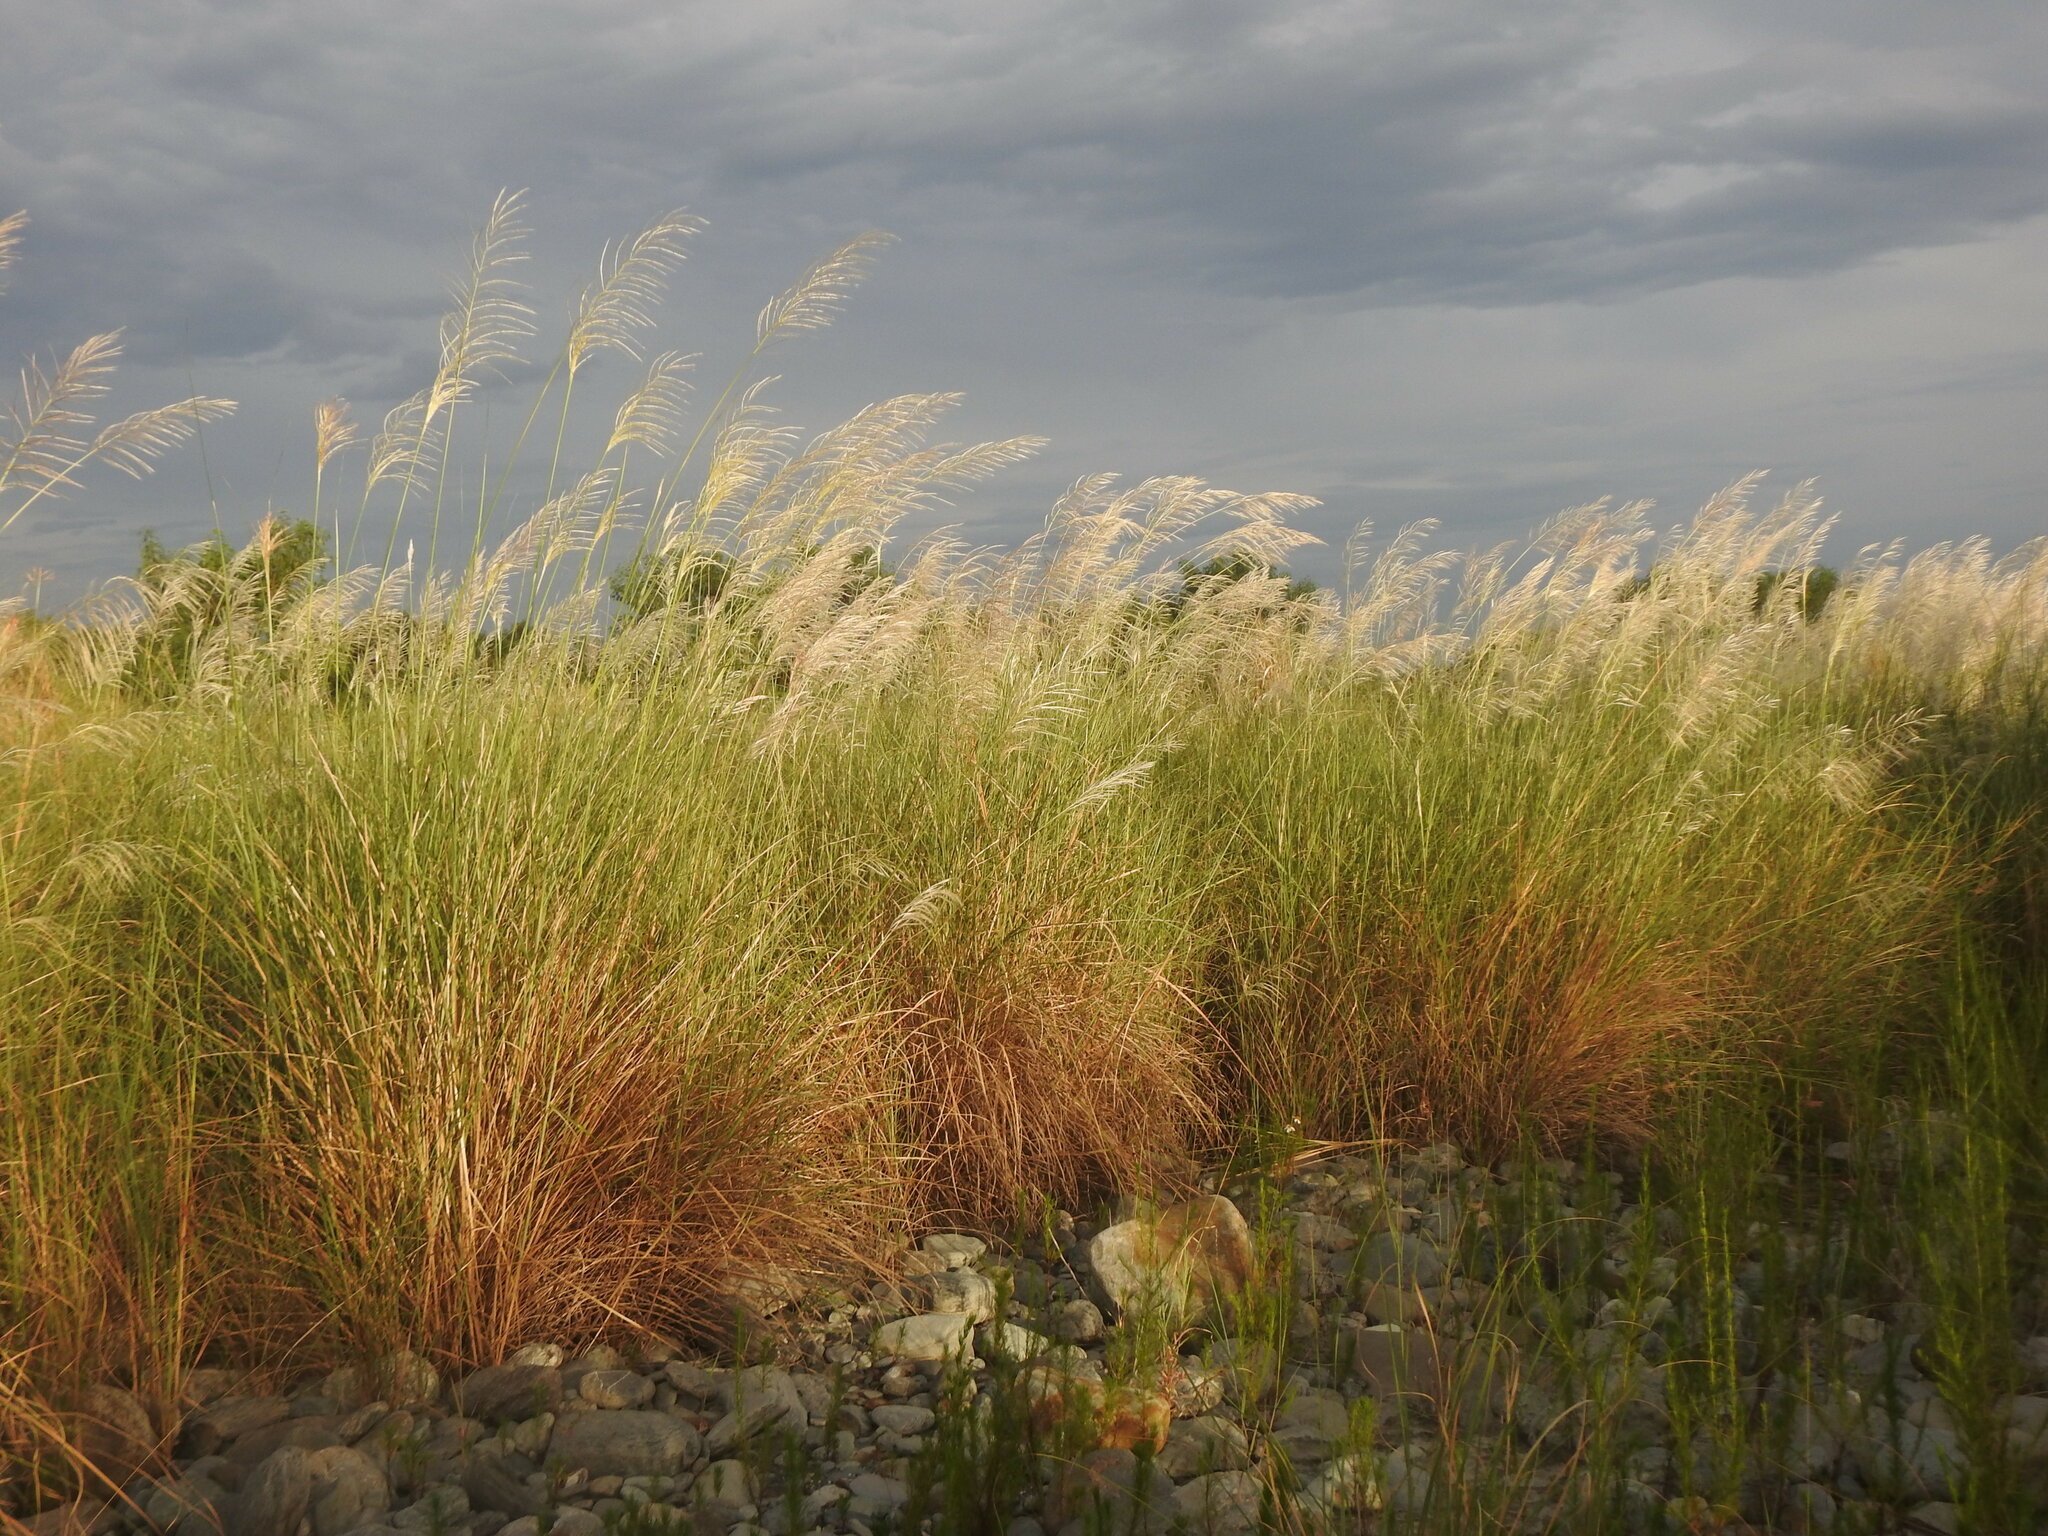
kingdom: Plantae
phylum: Tracheophyta
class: Liliopsida
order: Poales
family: Poaceae
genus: Saccharum
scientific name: Saccharum spontaneum
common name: Wild sugarcane
